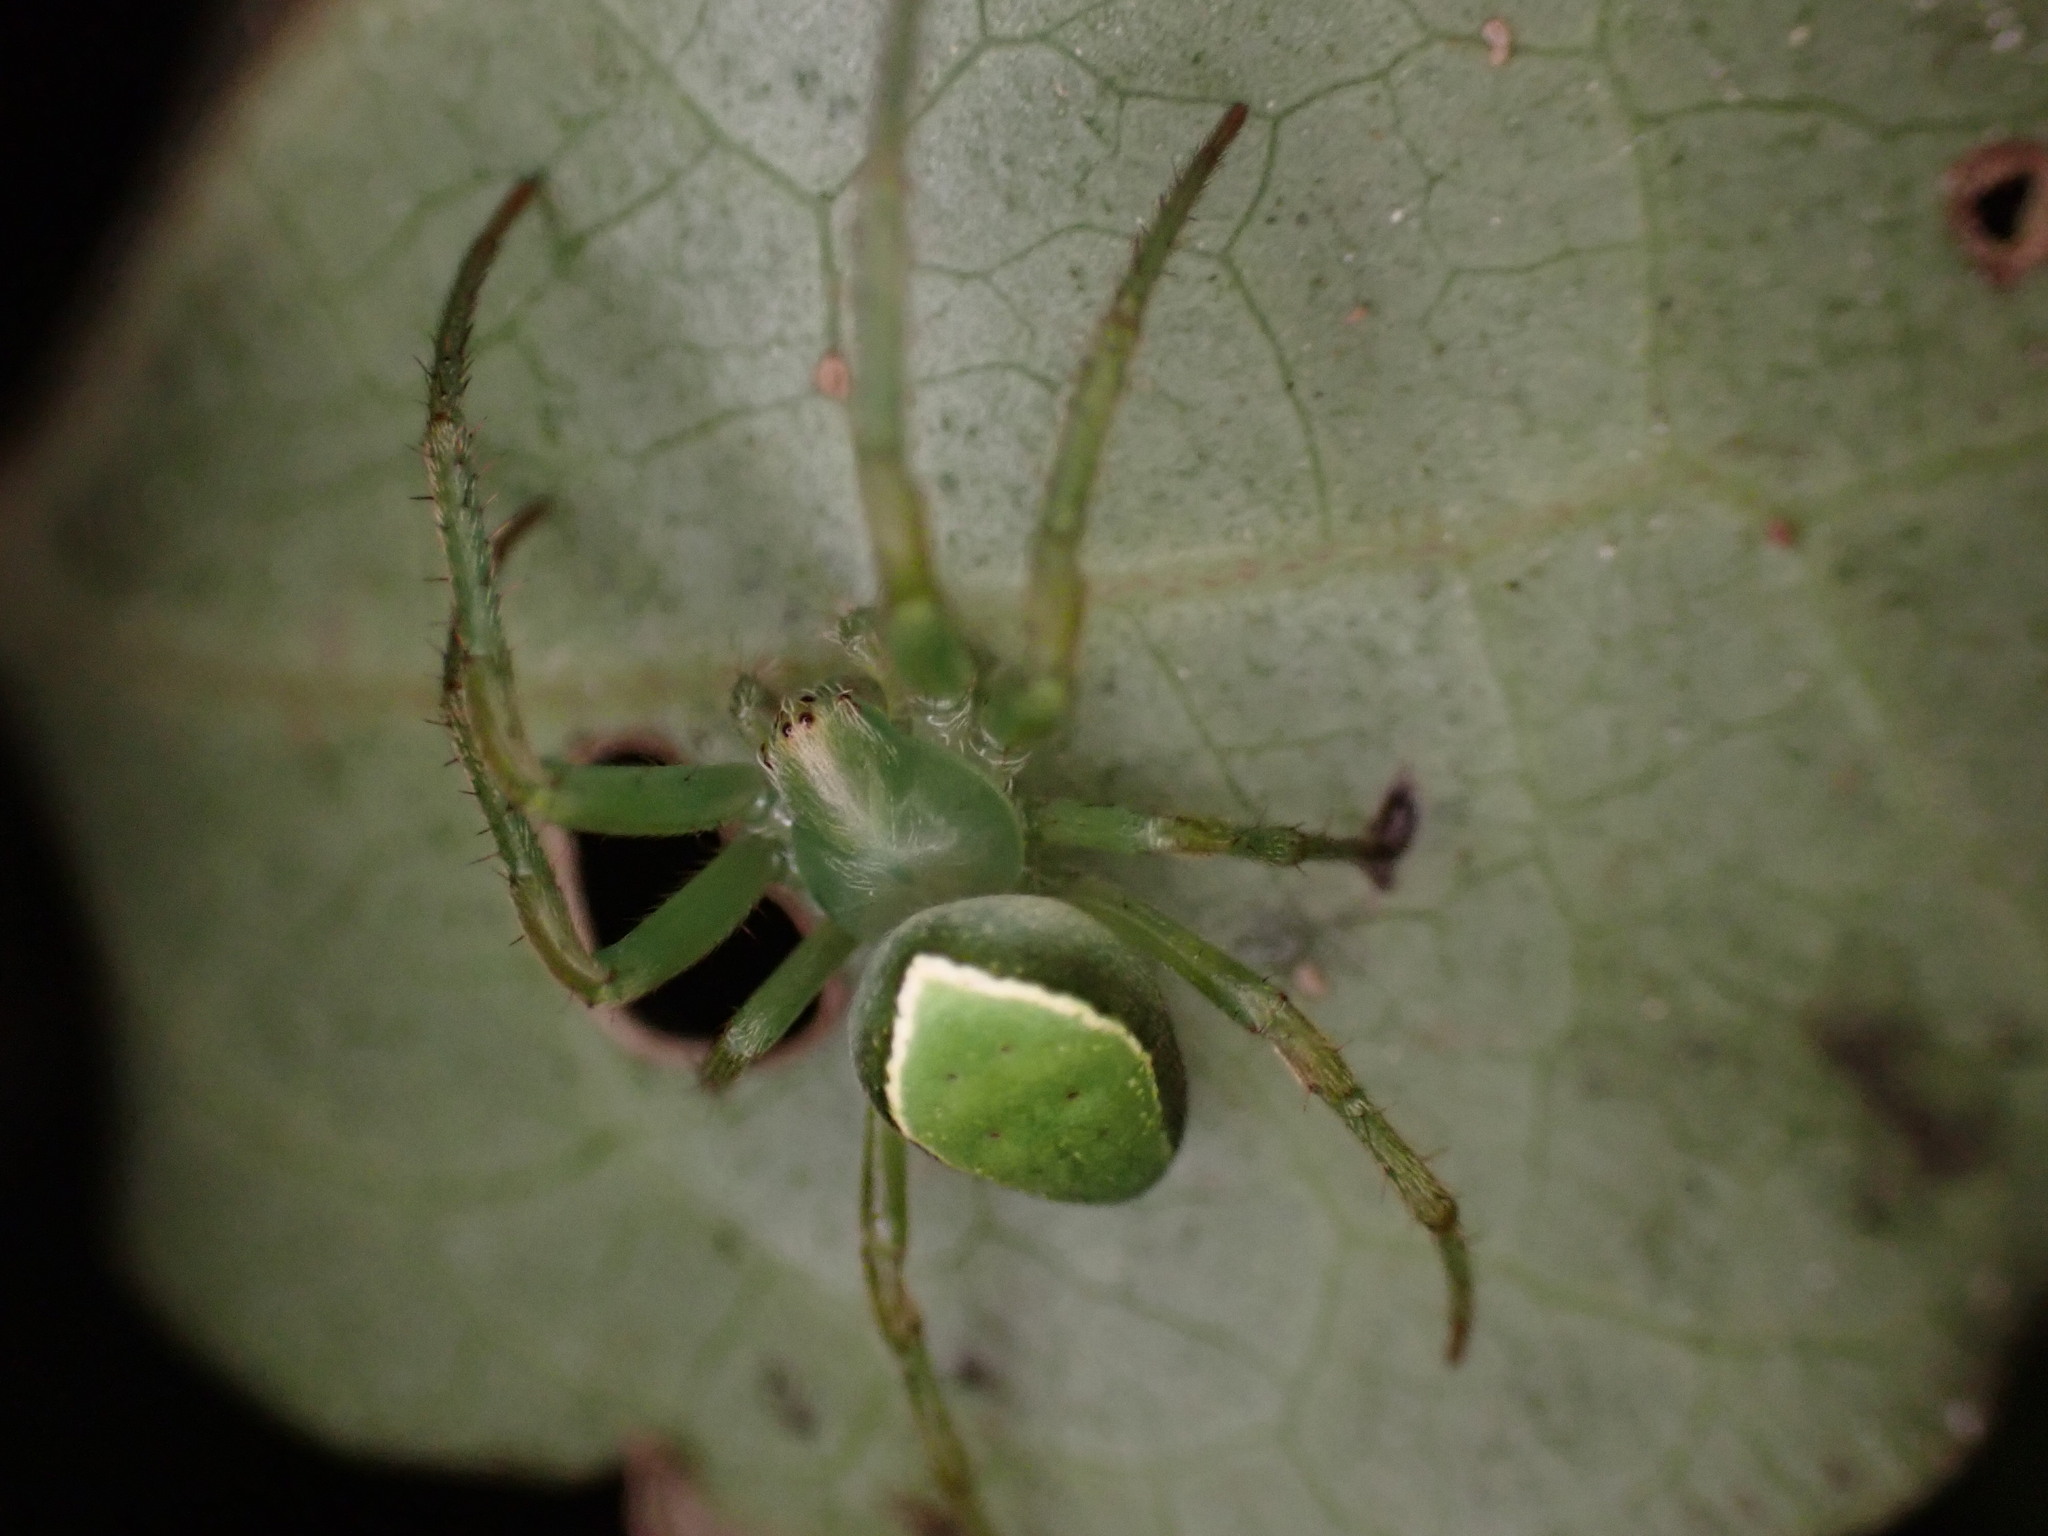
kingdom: Animalia
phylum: Arthropoda
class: Arachnida
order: Araneae
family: Araneidae
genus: Colaranea
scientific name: Colaranea viriditas
